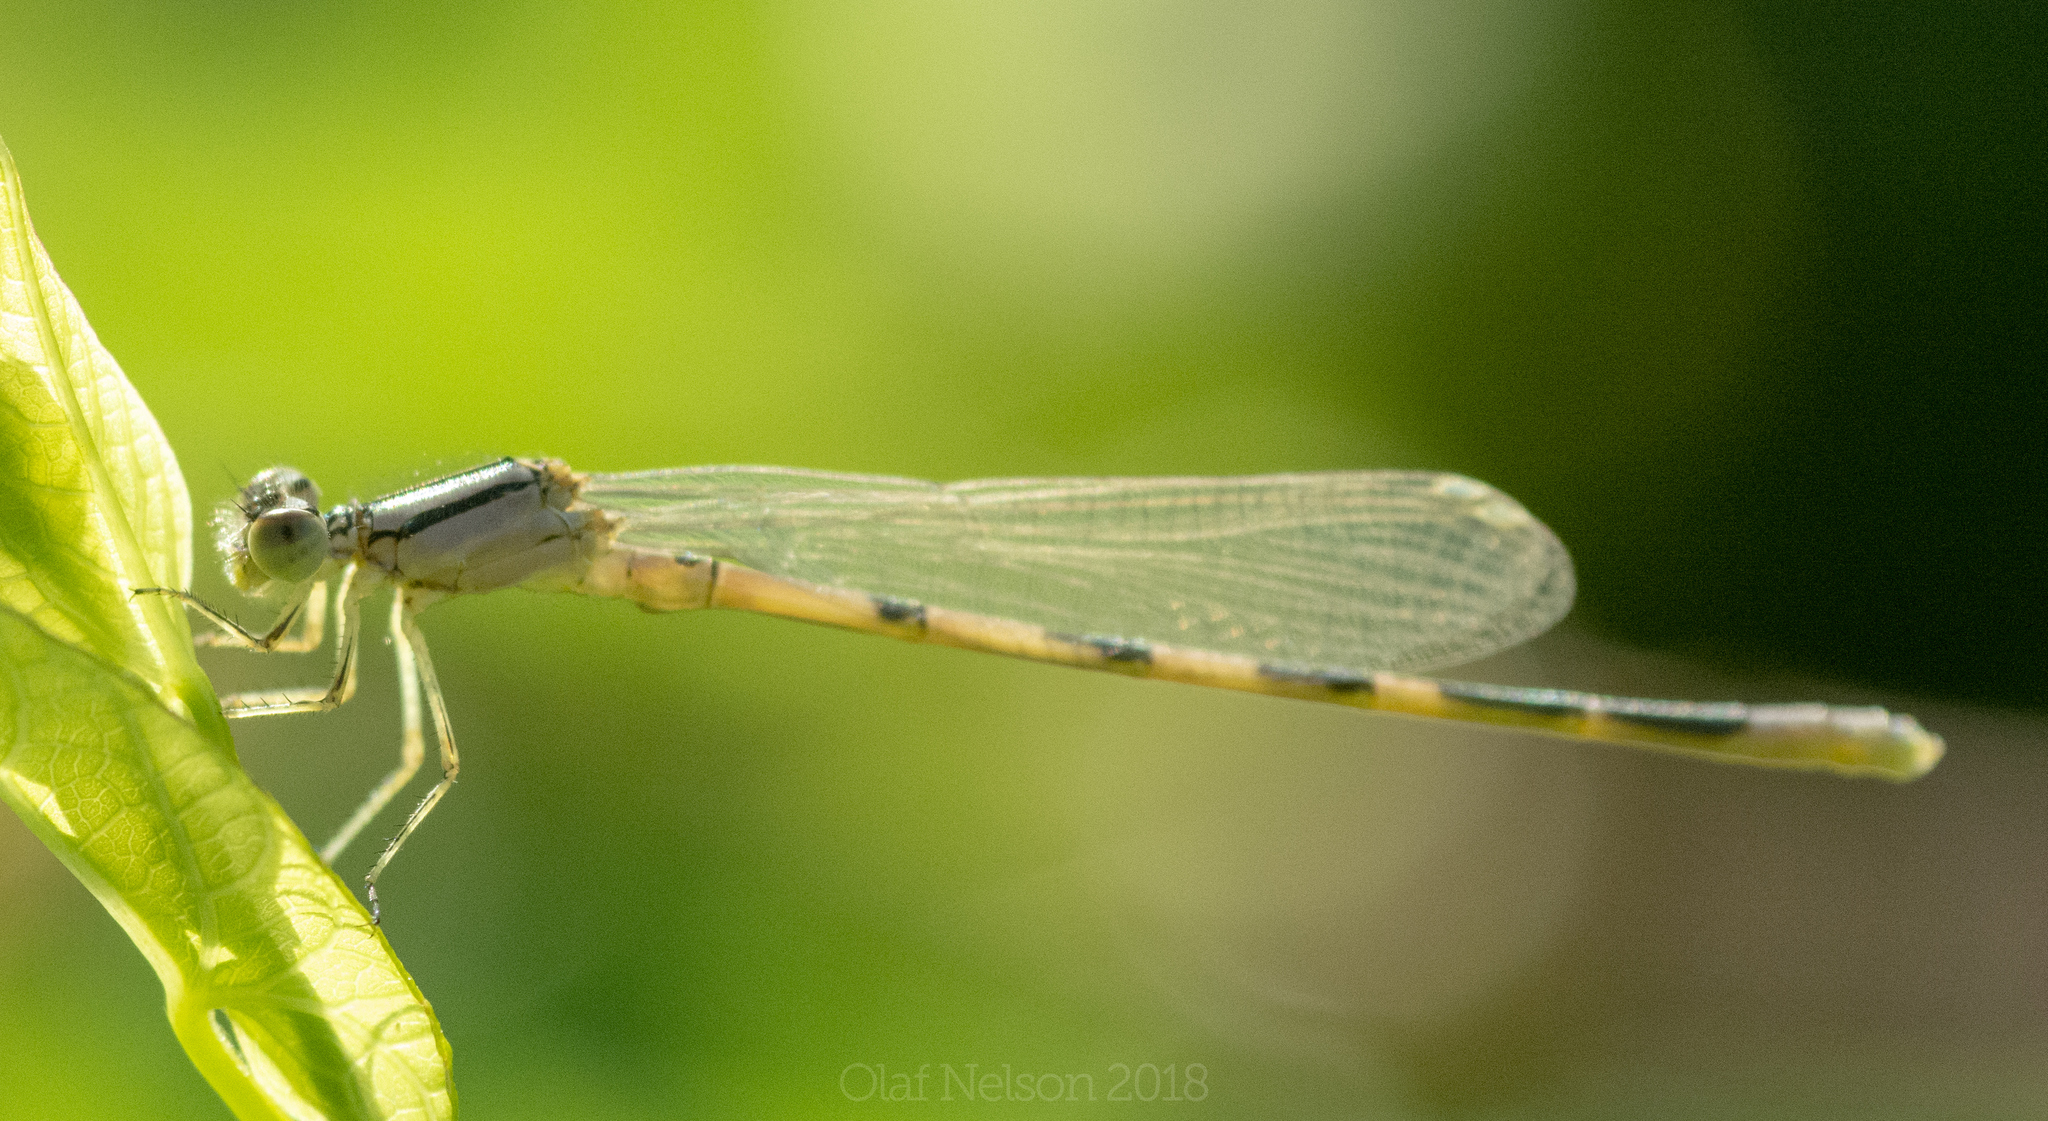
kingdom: Animalia
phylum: Arthropoda
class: Insecta
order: Odonata
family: Coenagrionidae
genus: Enallagma
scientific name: Enallagma civile
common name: Damselfly
